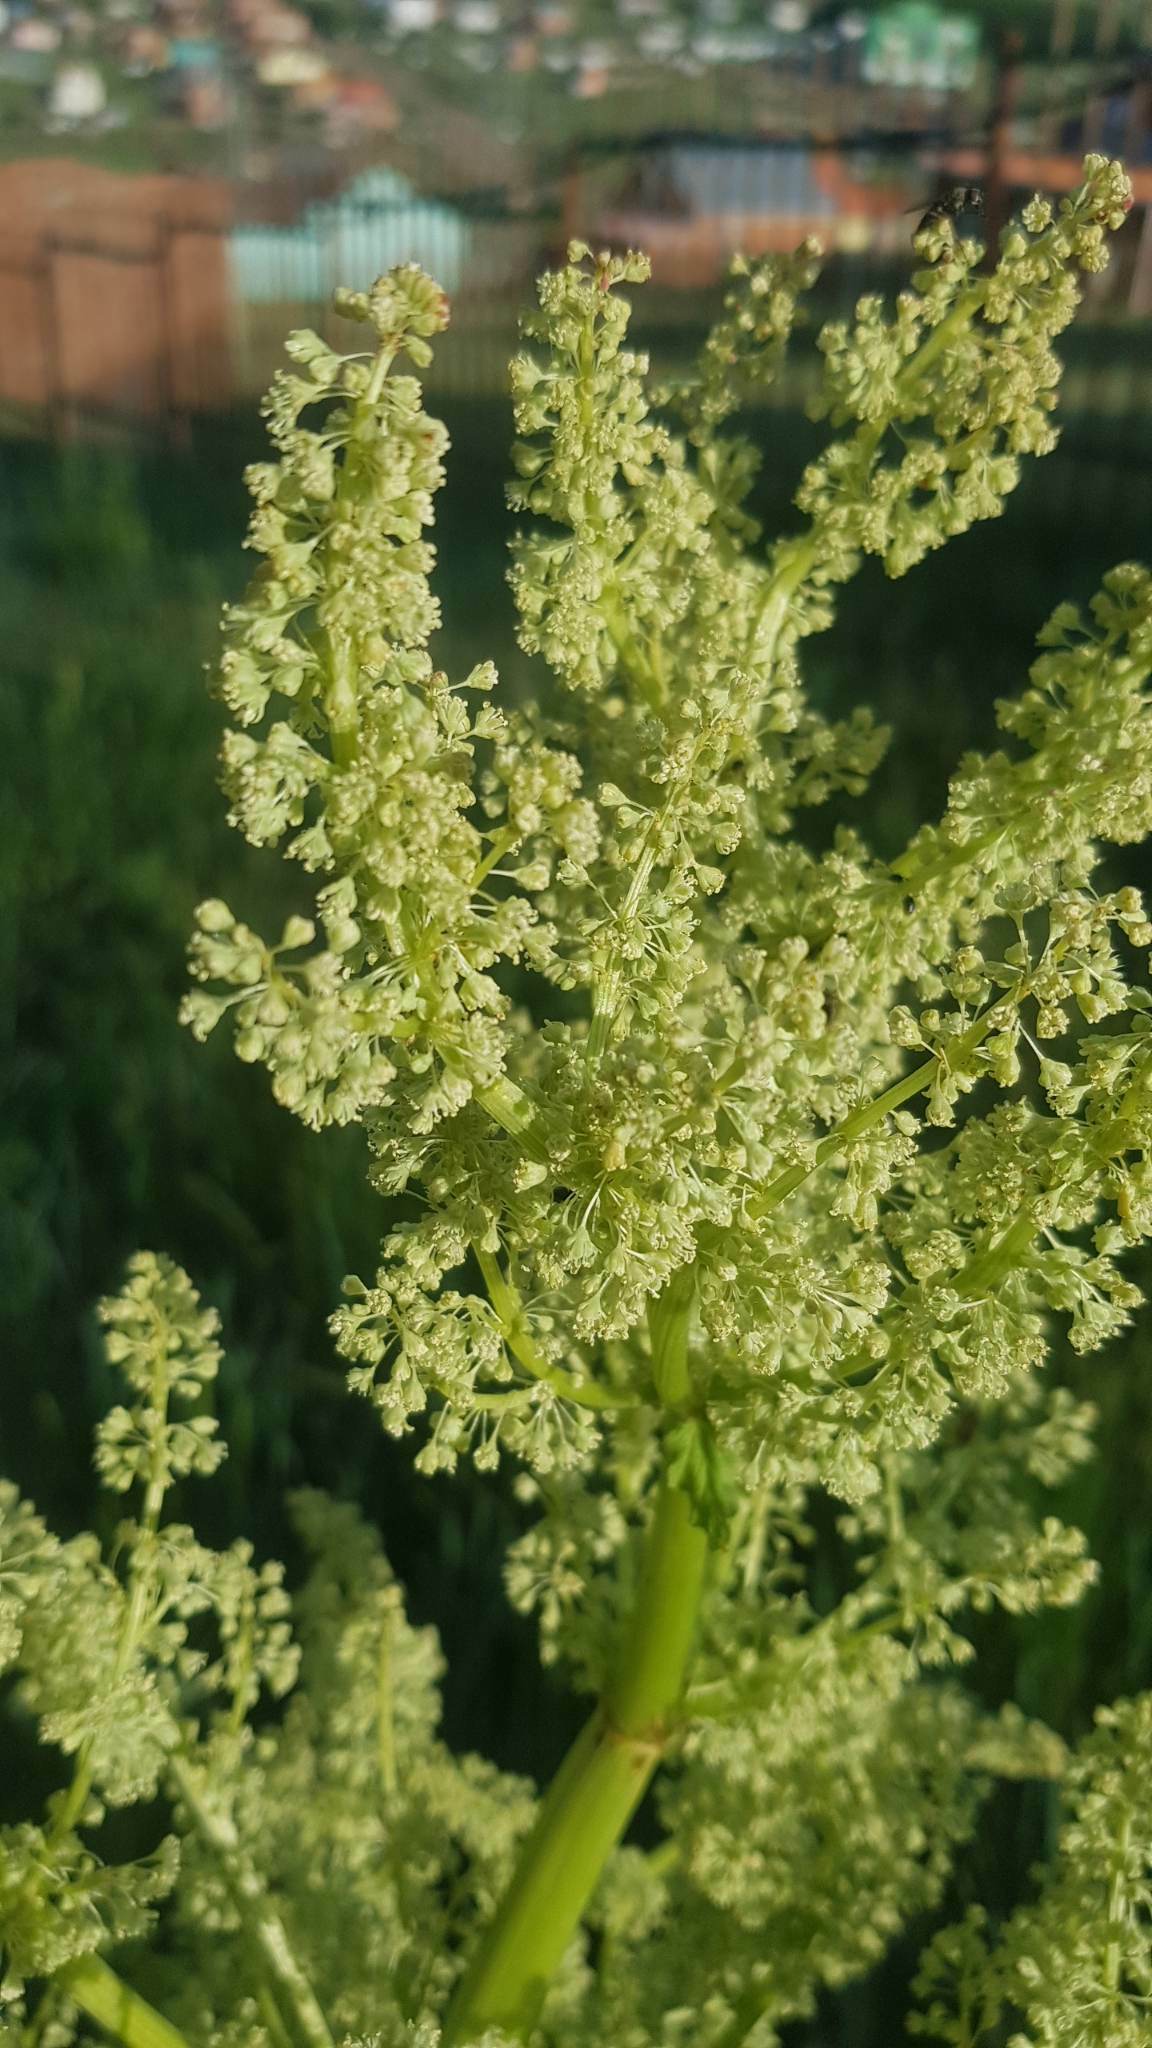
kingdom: Plantae
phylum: Tracheophyta
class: Magnoliopsida
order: Caryophyllales
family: Polygonaceae
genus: Rheum
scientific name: Rheum rhabarbarum
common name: Garden rhubarb
